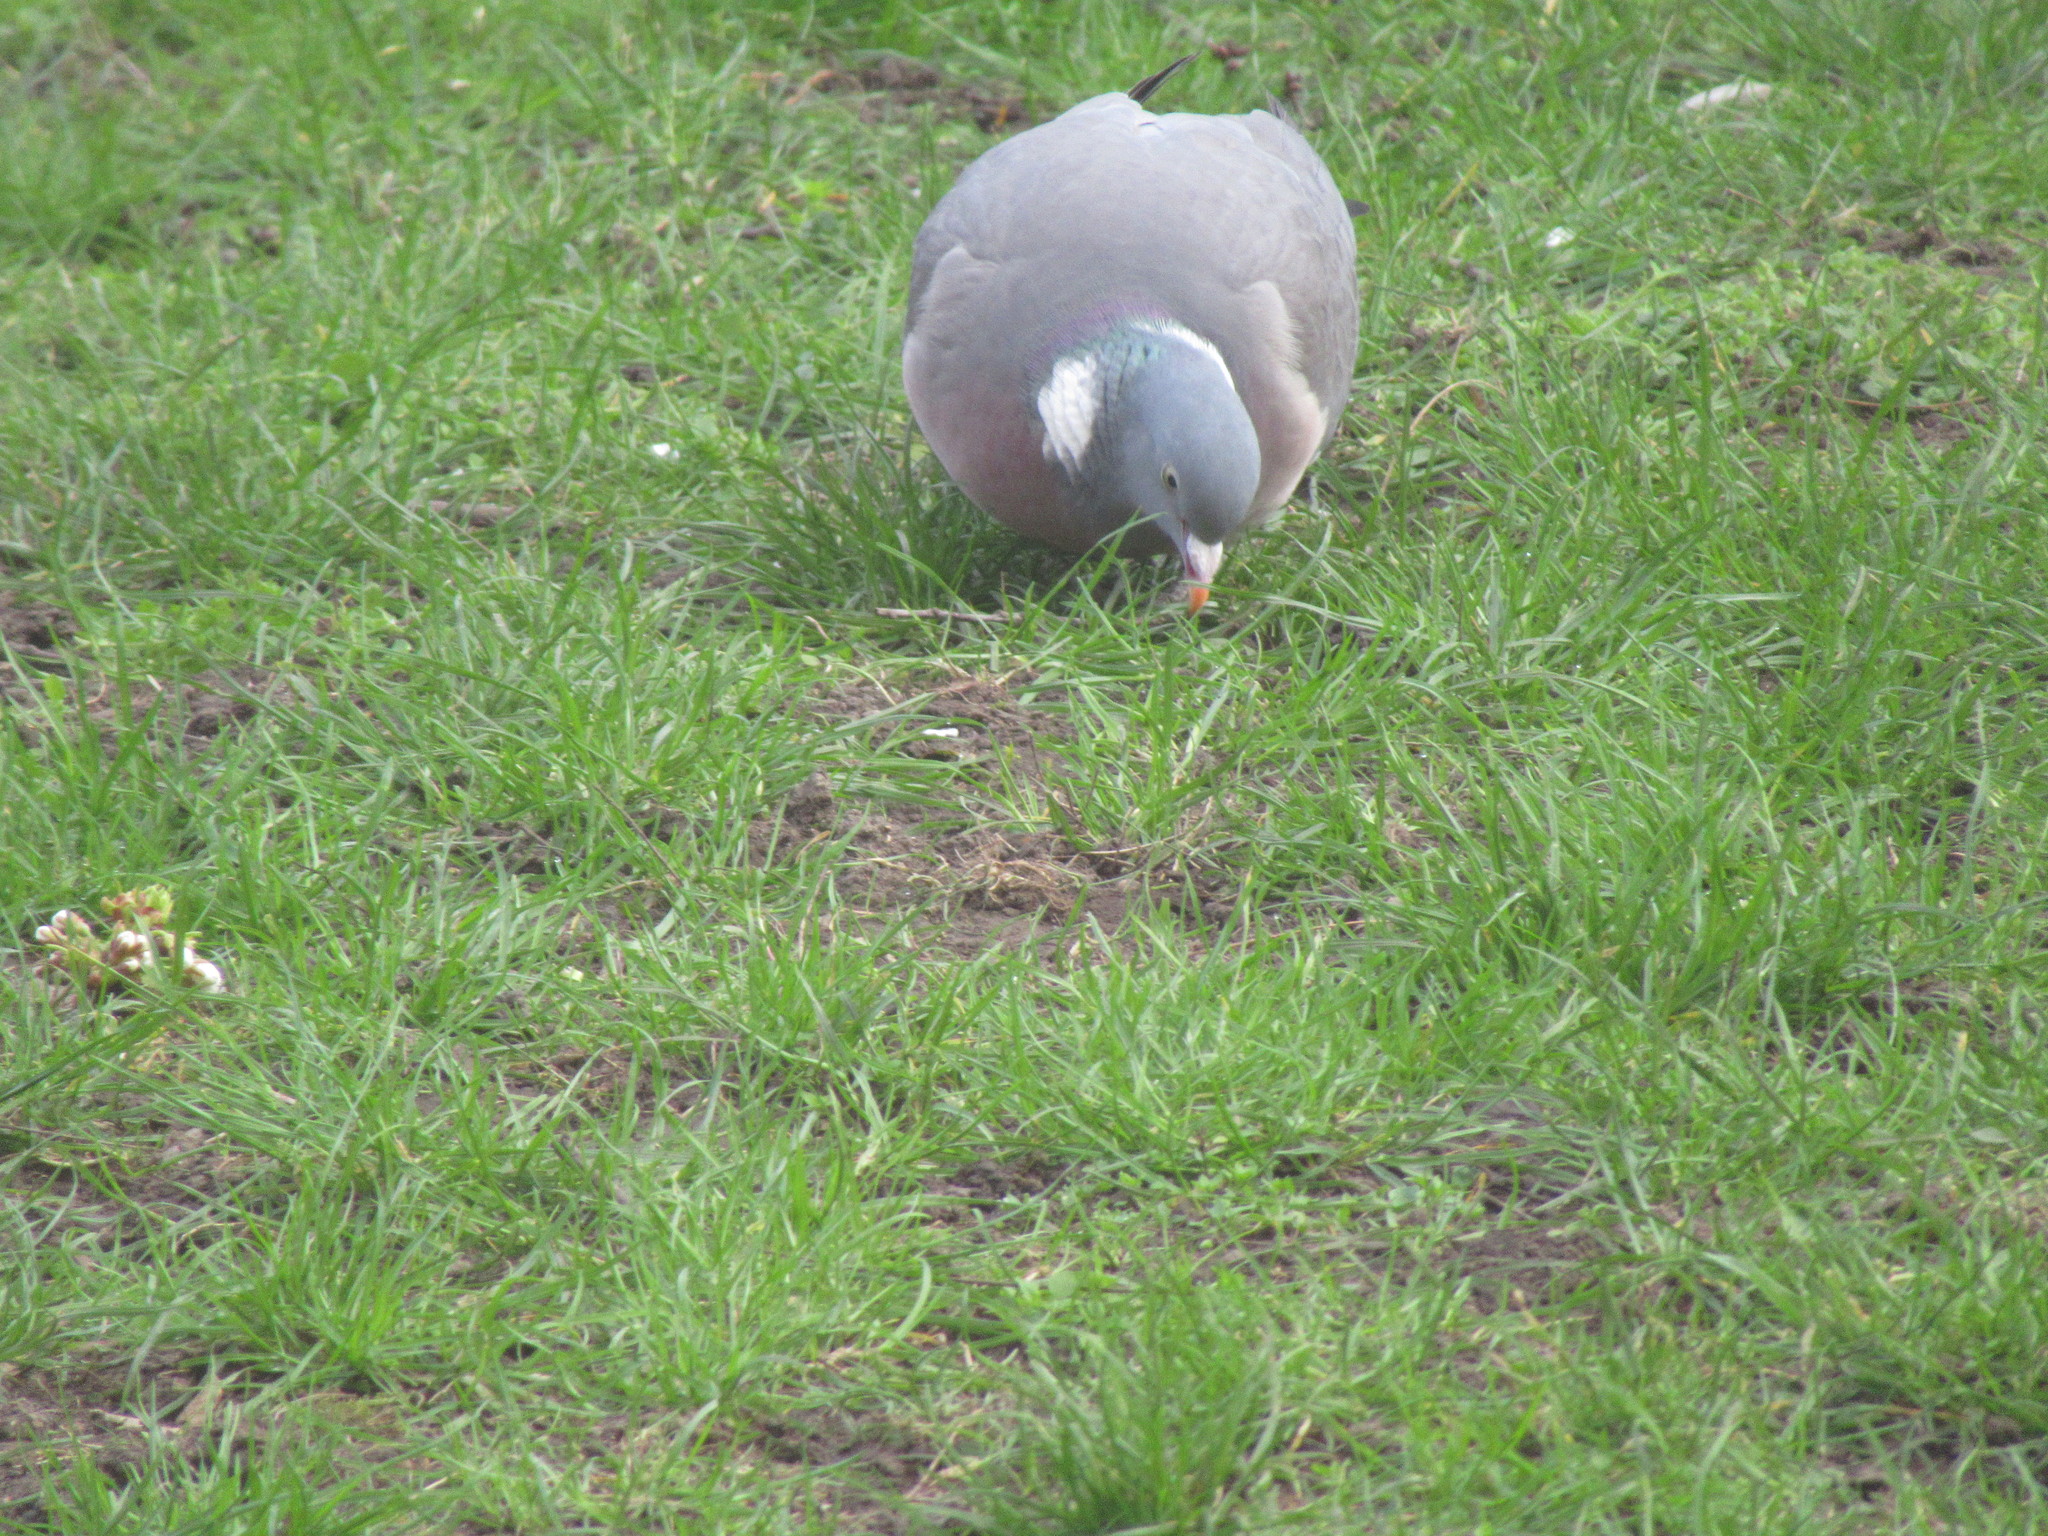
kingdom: Animalia
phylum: Chordata
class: Aves
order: Columbiformes
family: Columbidae
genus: Columba
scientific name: Columba palumbus
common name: Common wood pigeon
